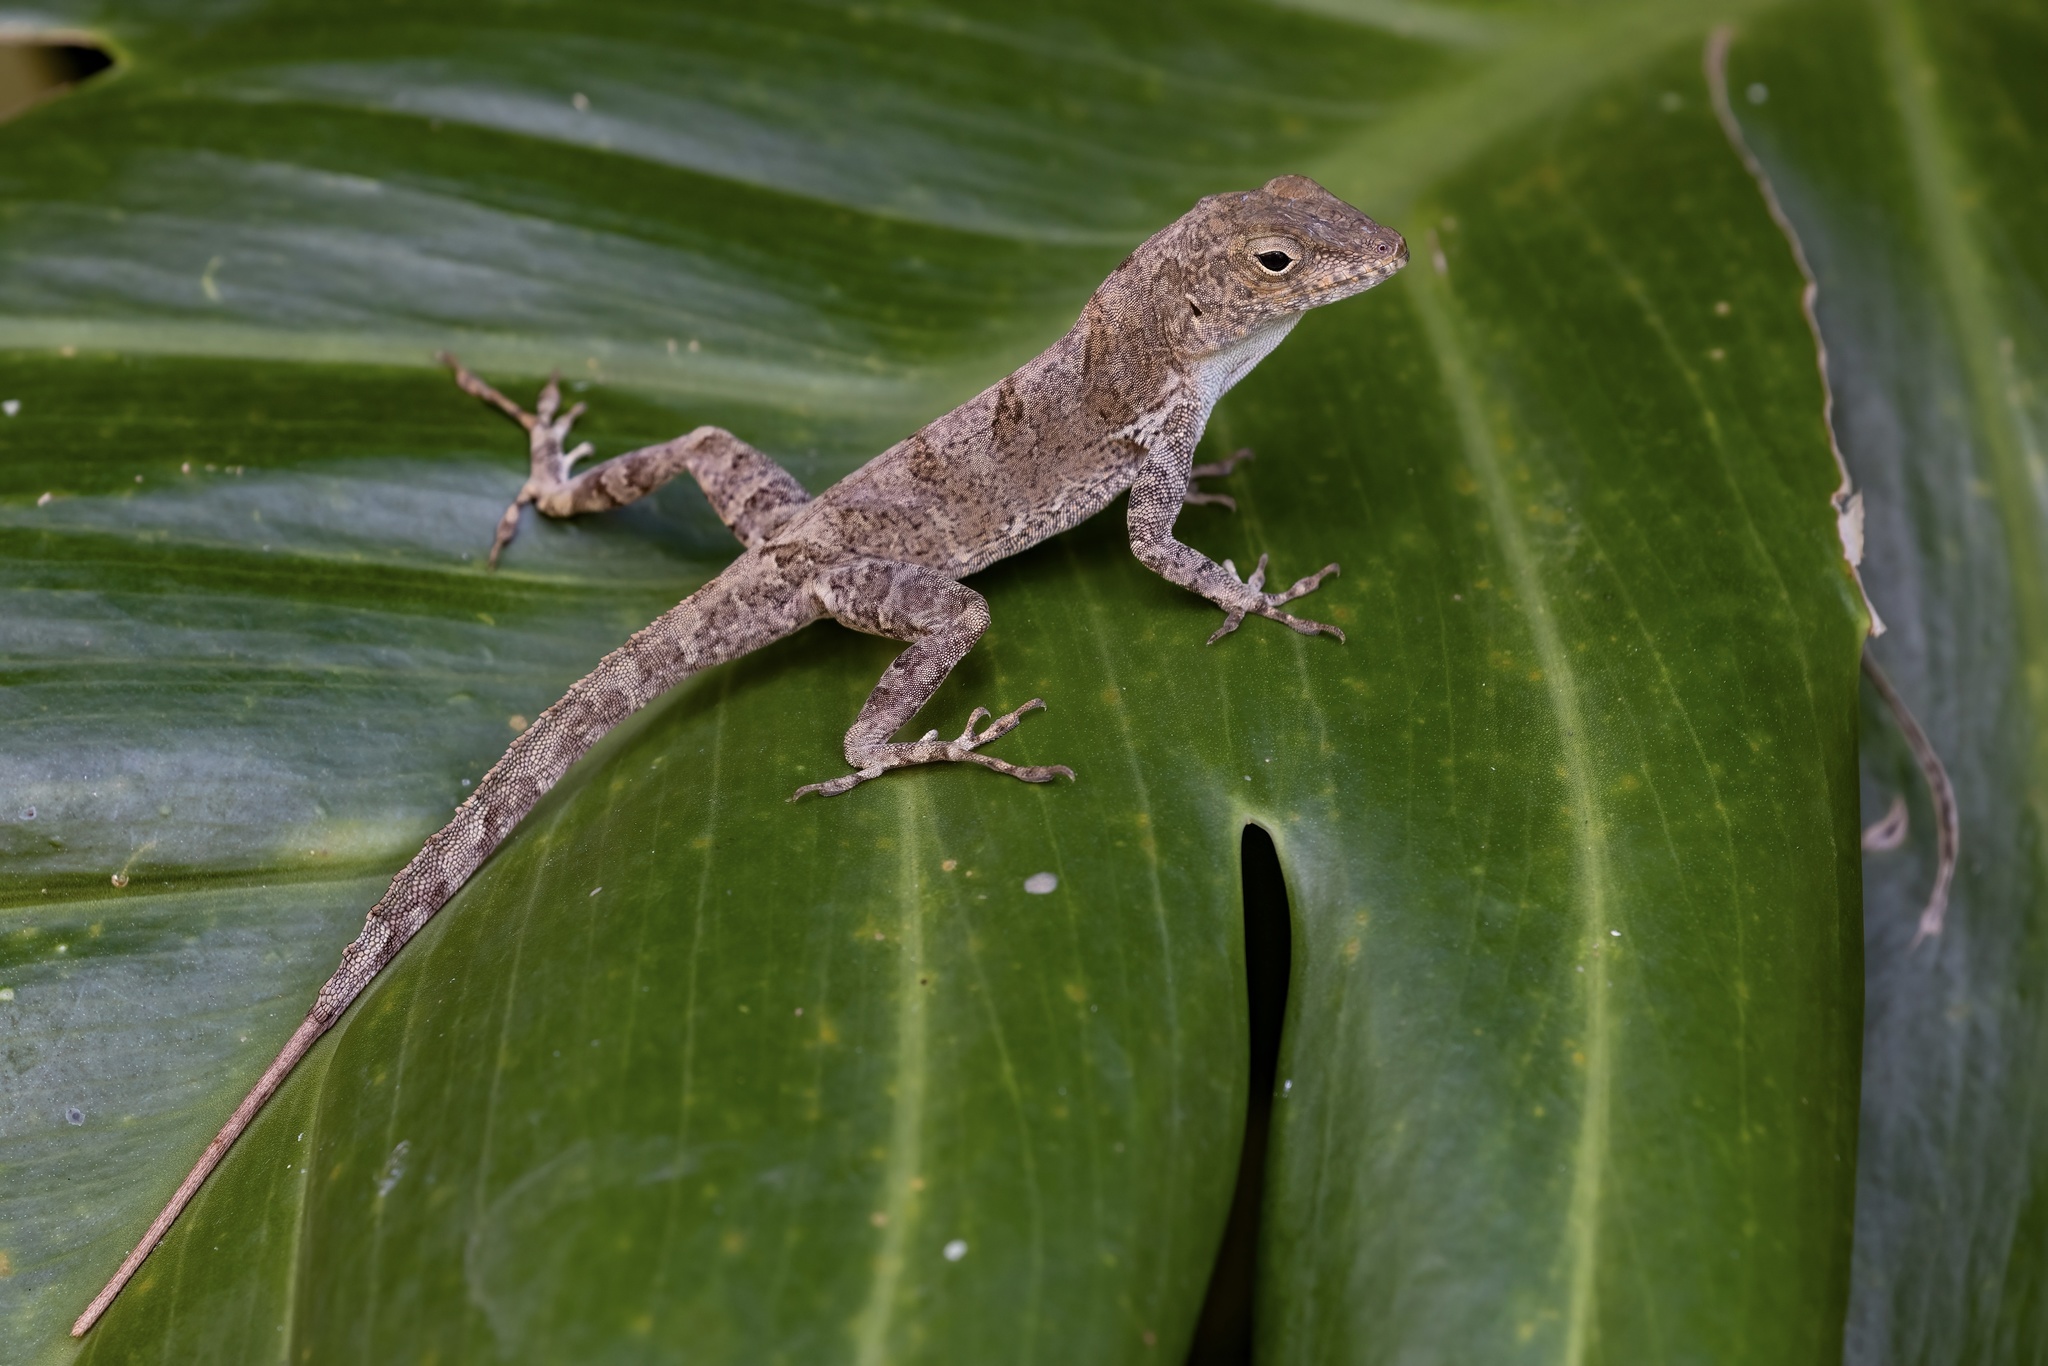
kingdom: Animalia
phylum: Chordata
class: Squamata
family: Dactyloidae
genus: Anolis
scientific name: Anolis cristatellus
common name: Crested anole
